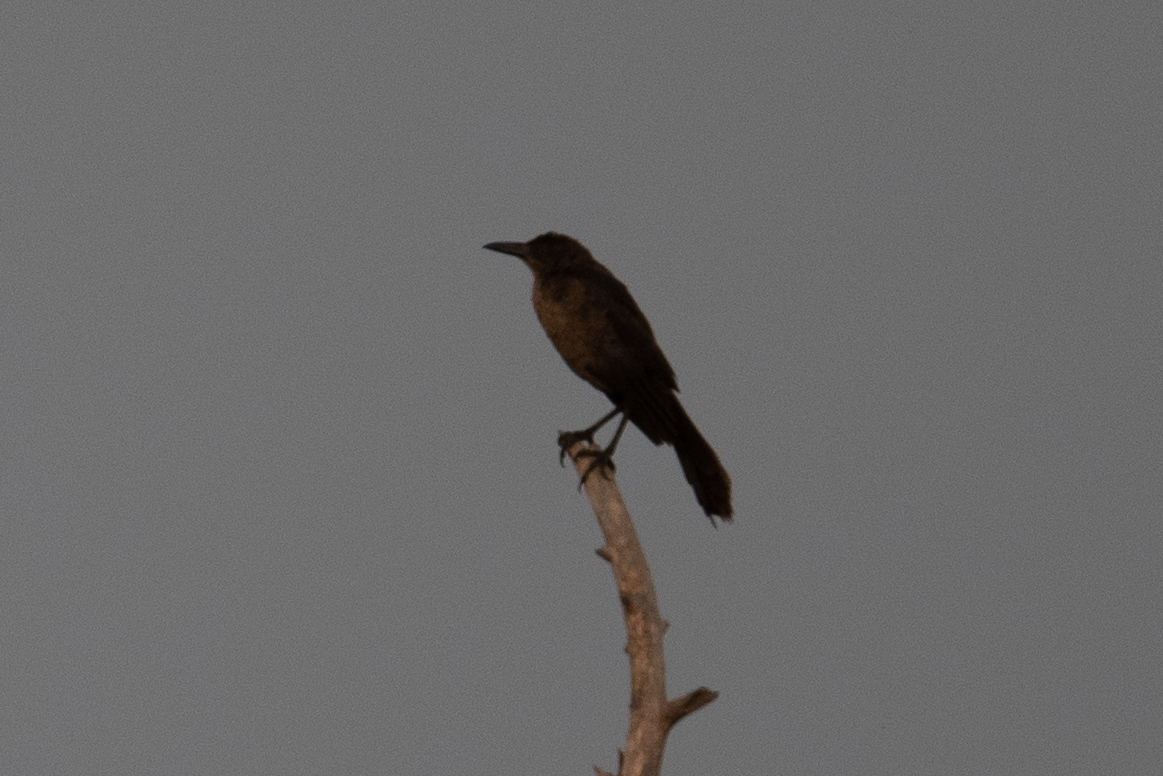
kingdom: Animalia
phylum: Chordata
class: Aves
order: Passeriformes
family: Icteridae
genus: Quiscalus
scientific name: Quiscalus mexicanus
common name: Great-tailed grackle
